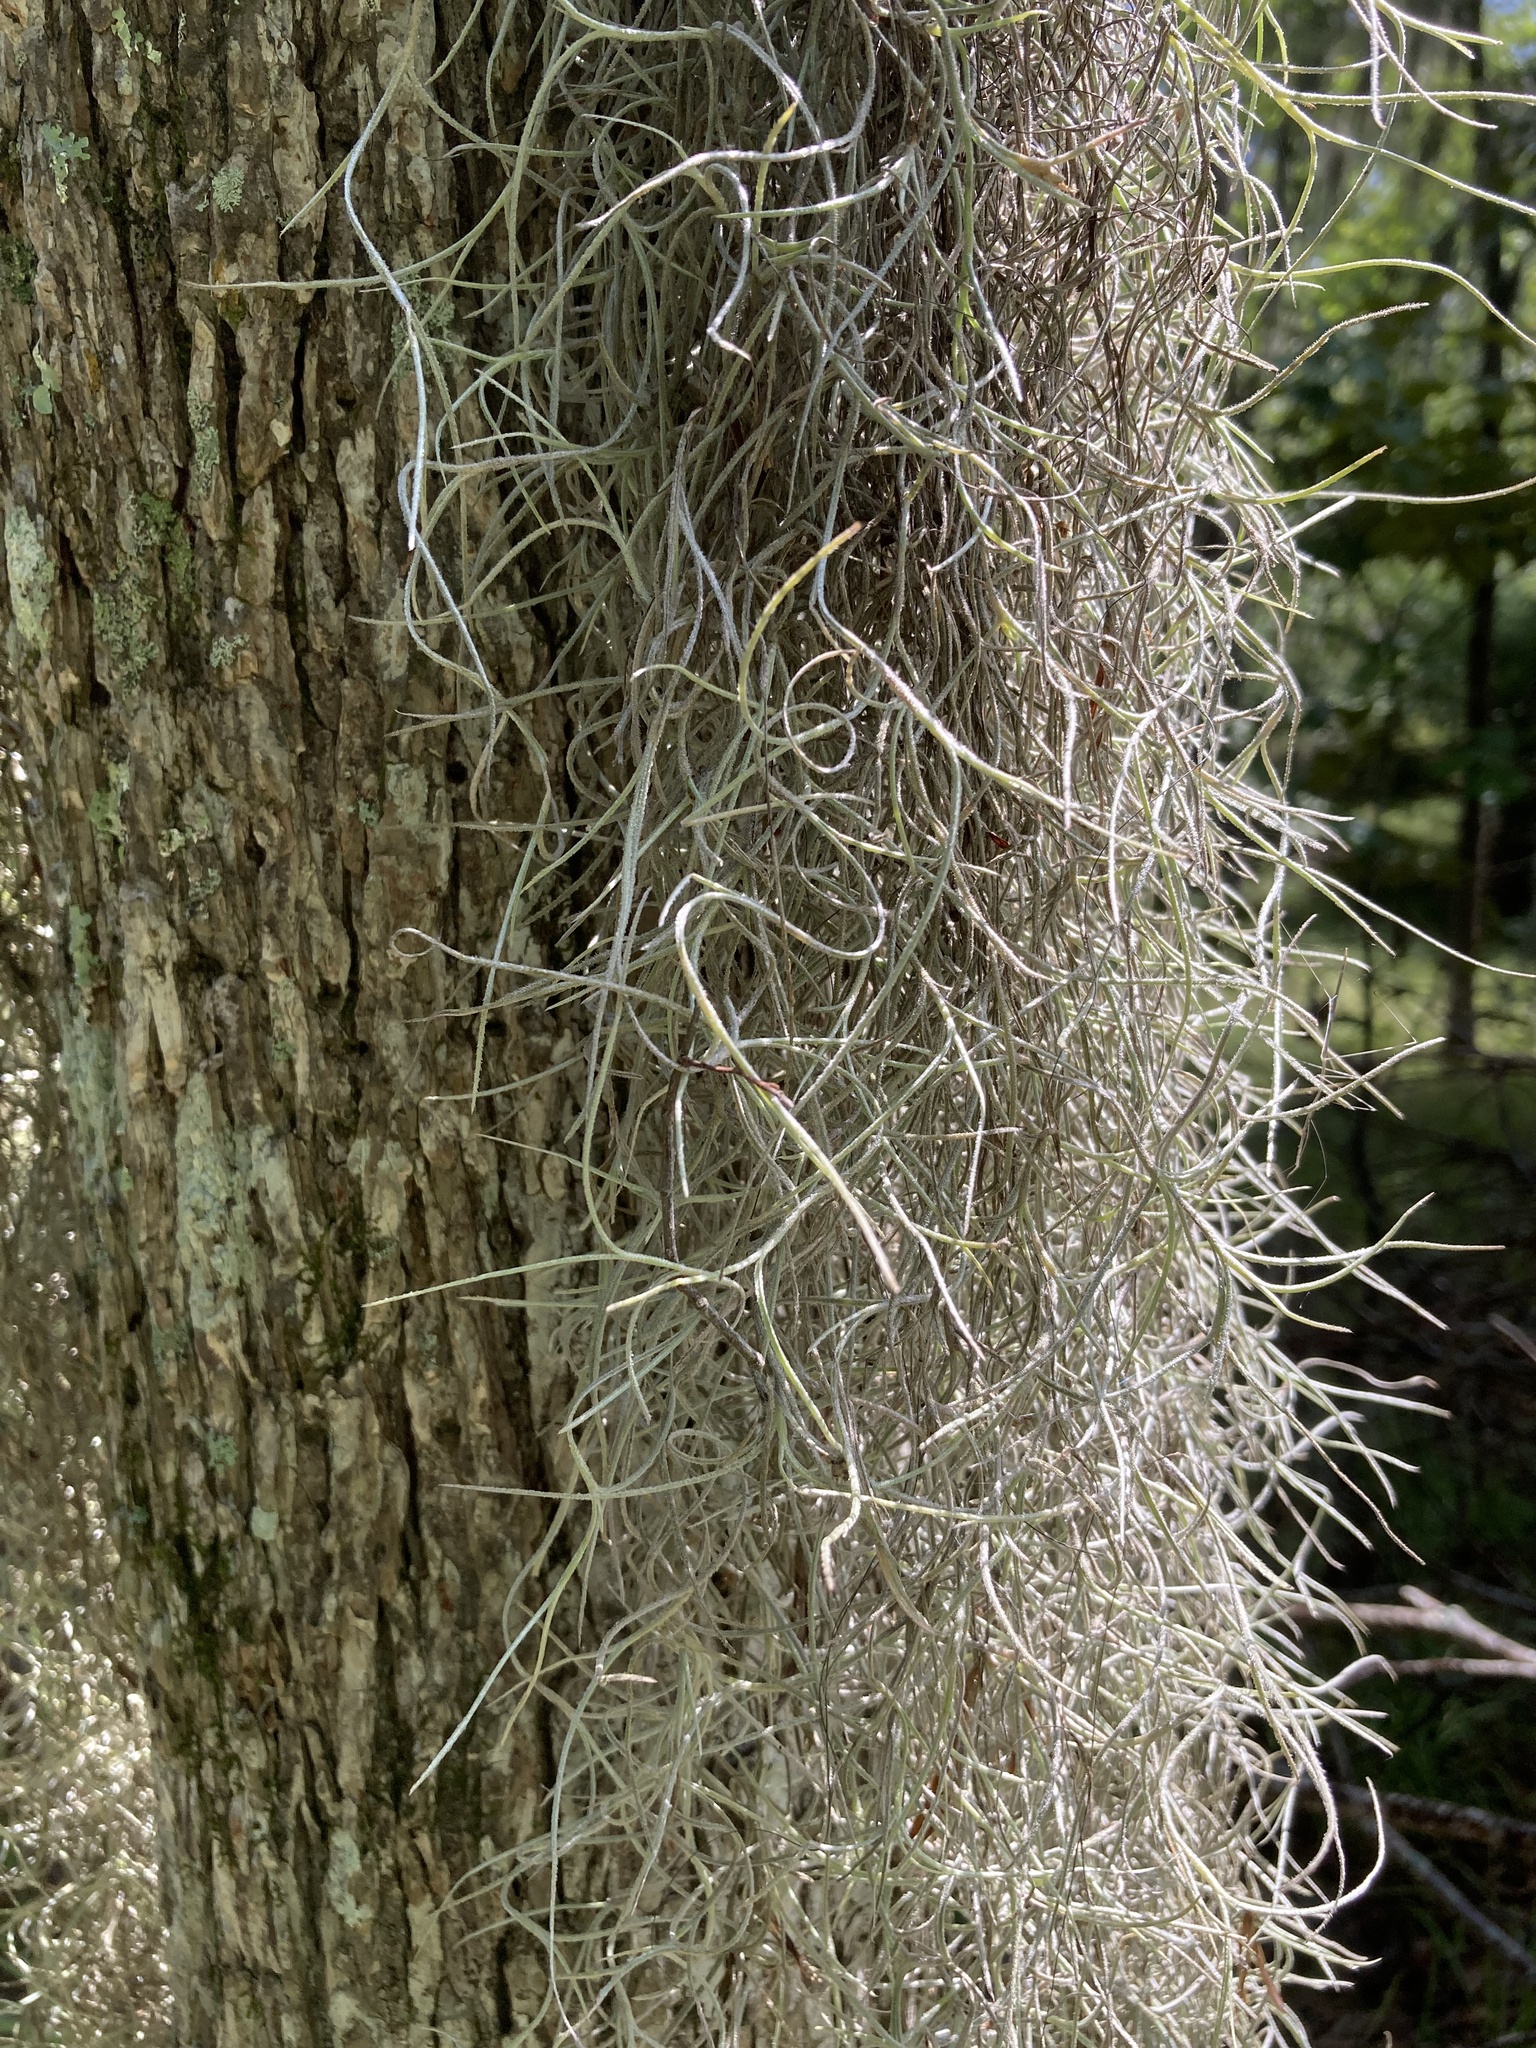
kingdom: Plantae
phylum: Tracheophyta
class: Liliopsida
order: Poales
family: Bromeliaceae
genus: Tillandsia
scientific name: Tillandsia usneoides
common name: Spanish moss
